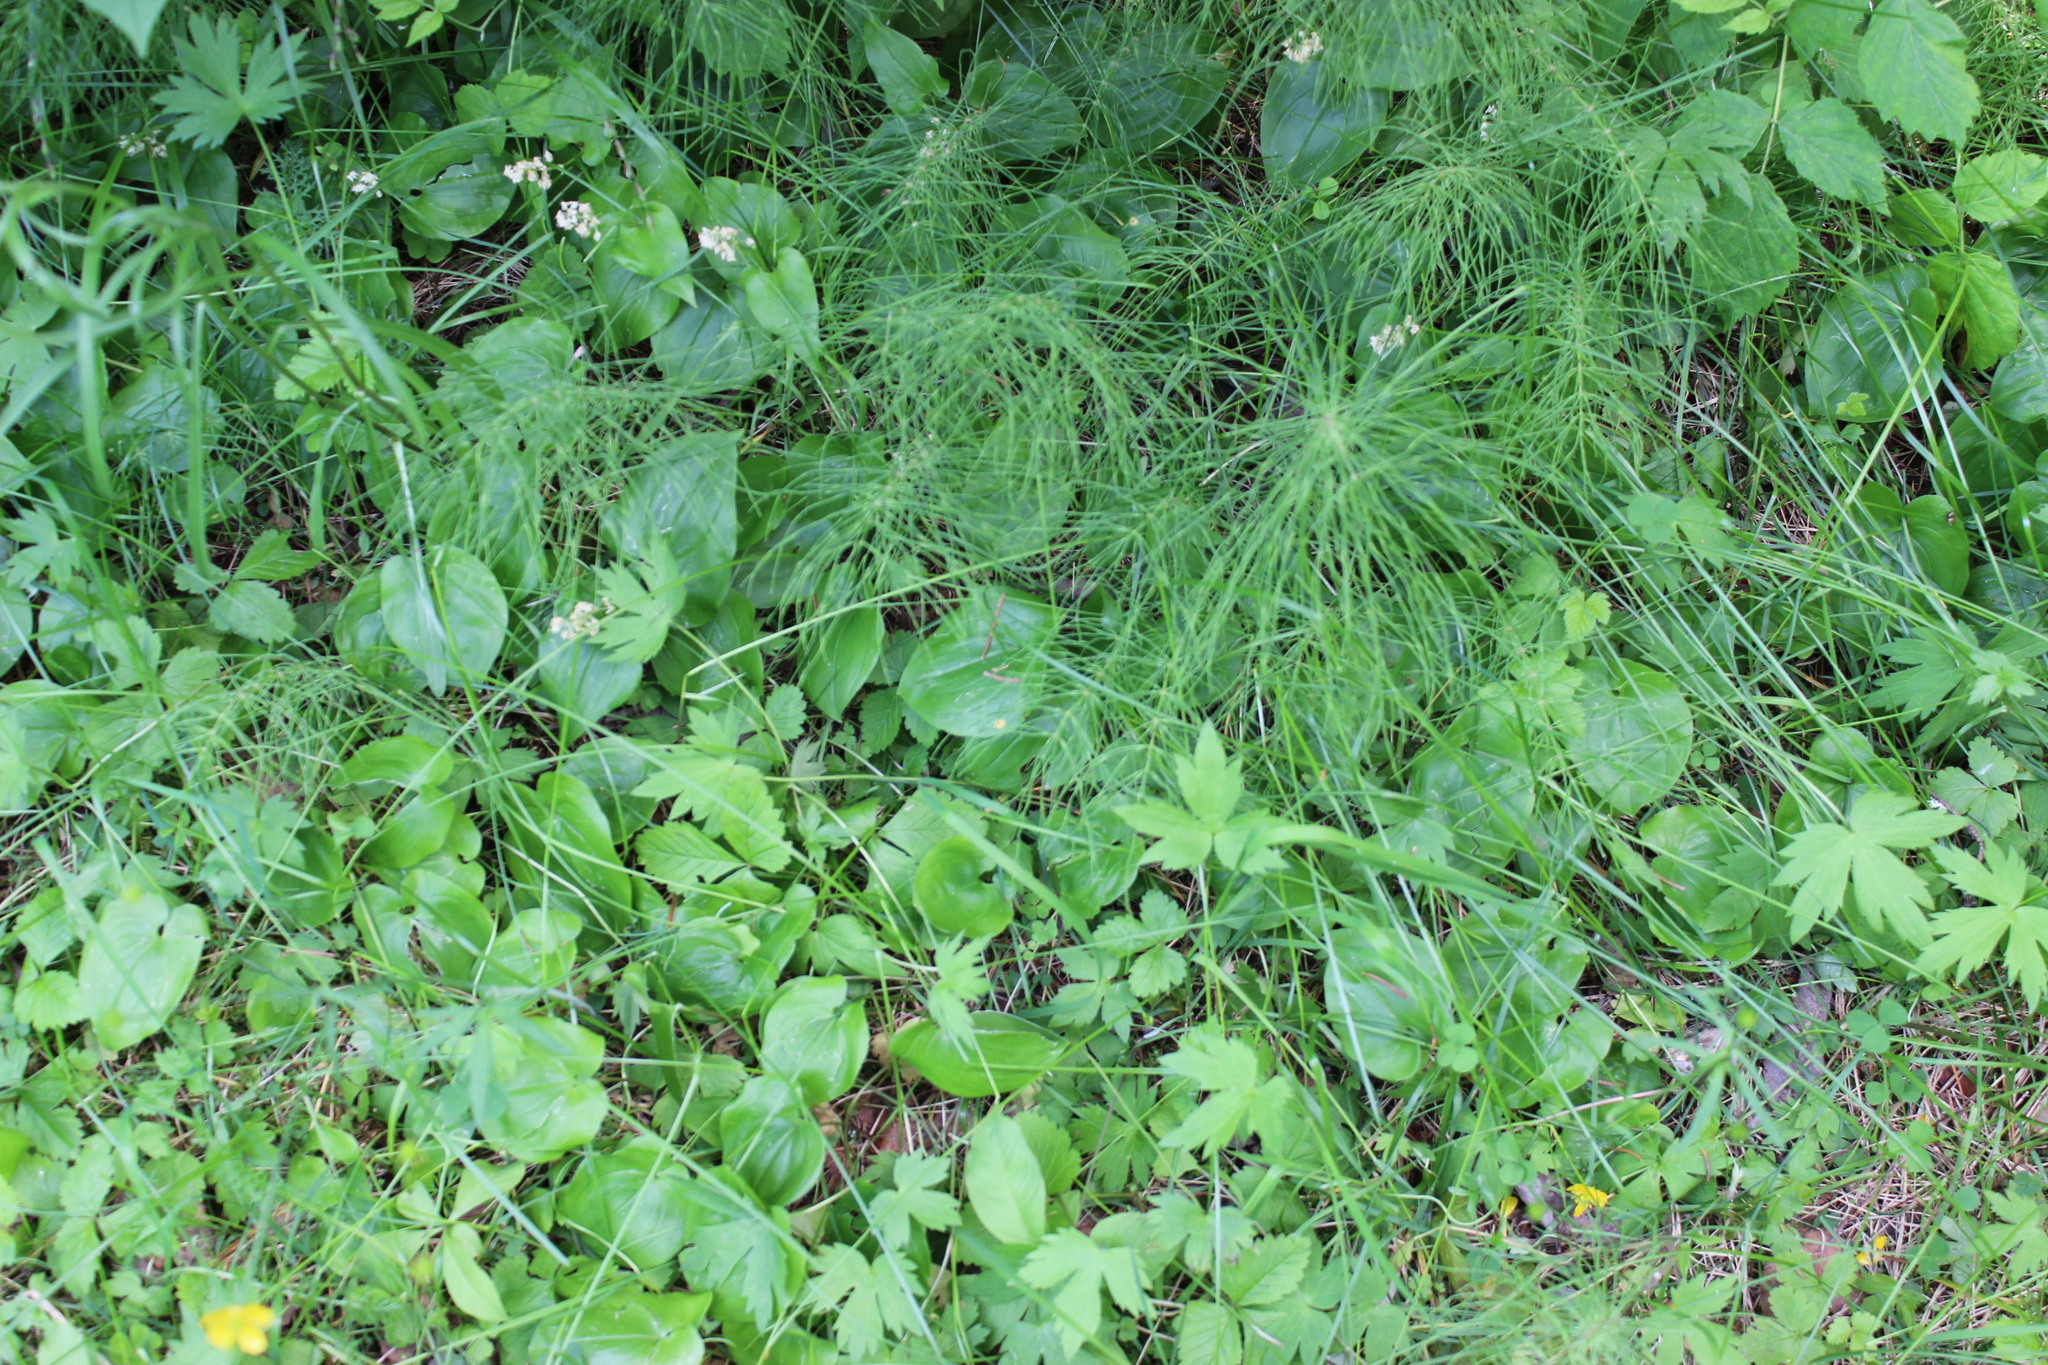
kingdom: Plantae
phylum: Tracheophyta
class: Polypodiopsida
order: Equisetales
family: Equisetaceae
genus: Equisetum
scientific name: Equisetum pratense
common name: Meadow horsetail
